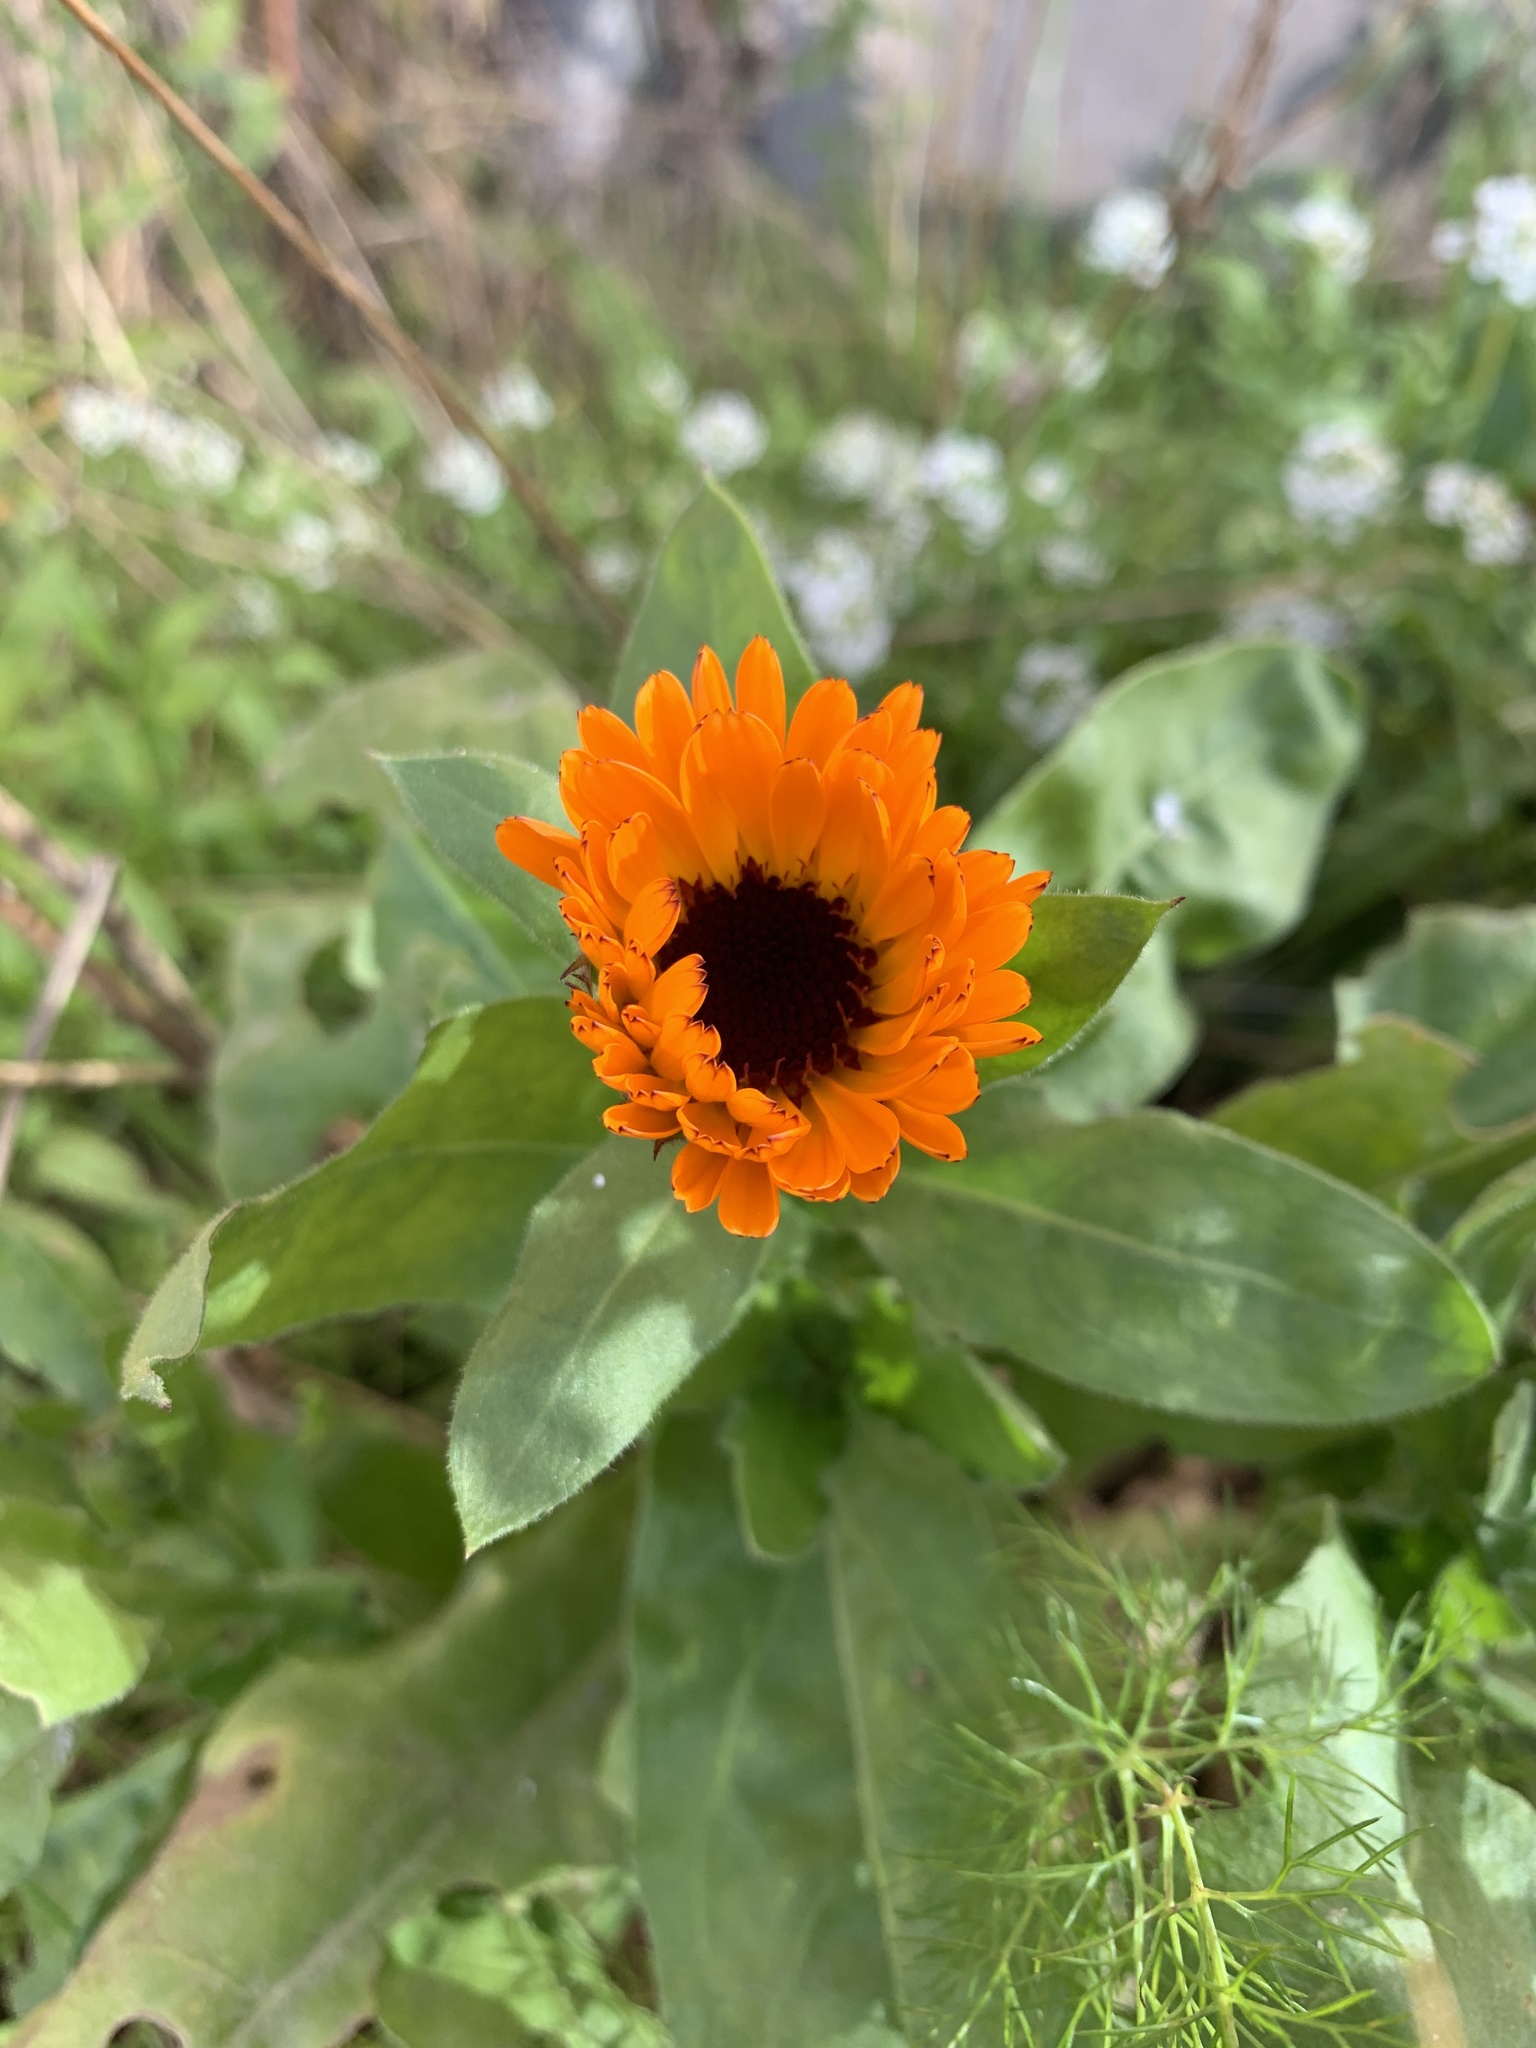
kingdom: Plantae
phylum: Tracheophyta
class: Magnoliopsida
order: Asterales
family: Asteraceae
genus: Calendula
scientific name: Calendula officinalis
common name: Pot marigold
